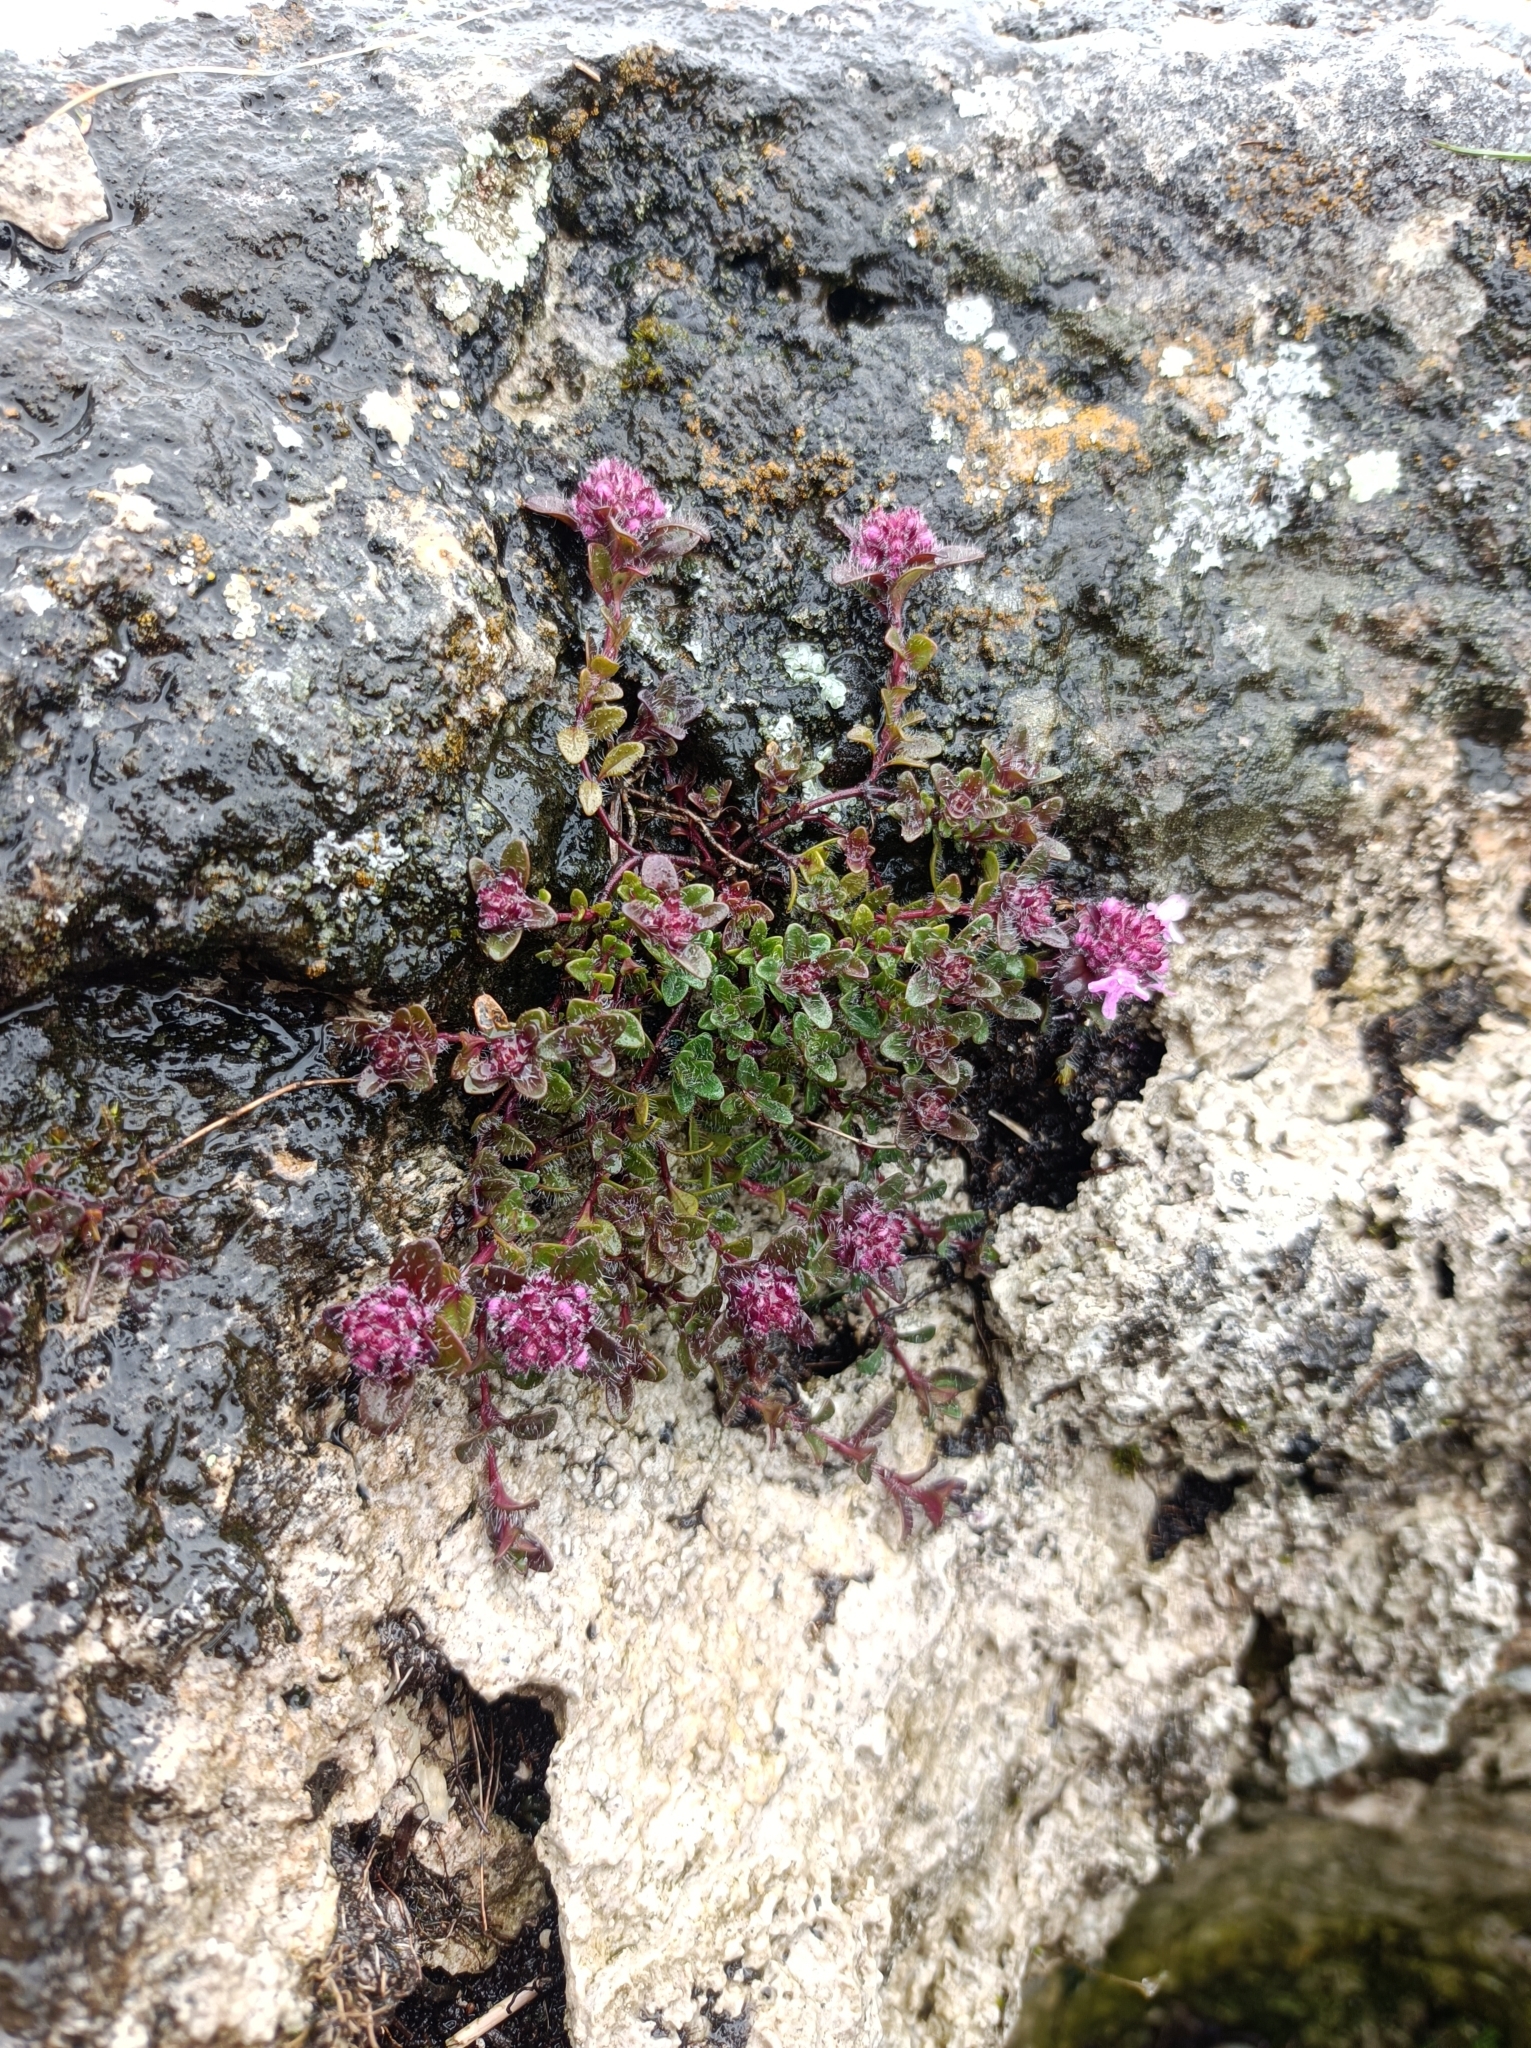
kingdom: Plantae
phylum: Tracheophyta
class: Magnoliopsida
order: Lamiales
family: Lamiaceae
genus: Thymus
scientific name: Thymus praecox
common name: Wild thyme
